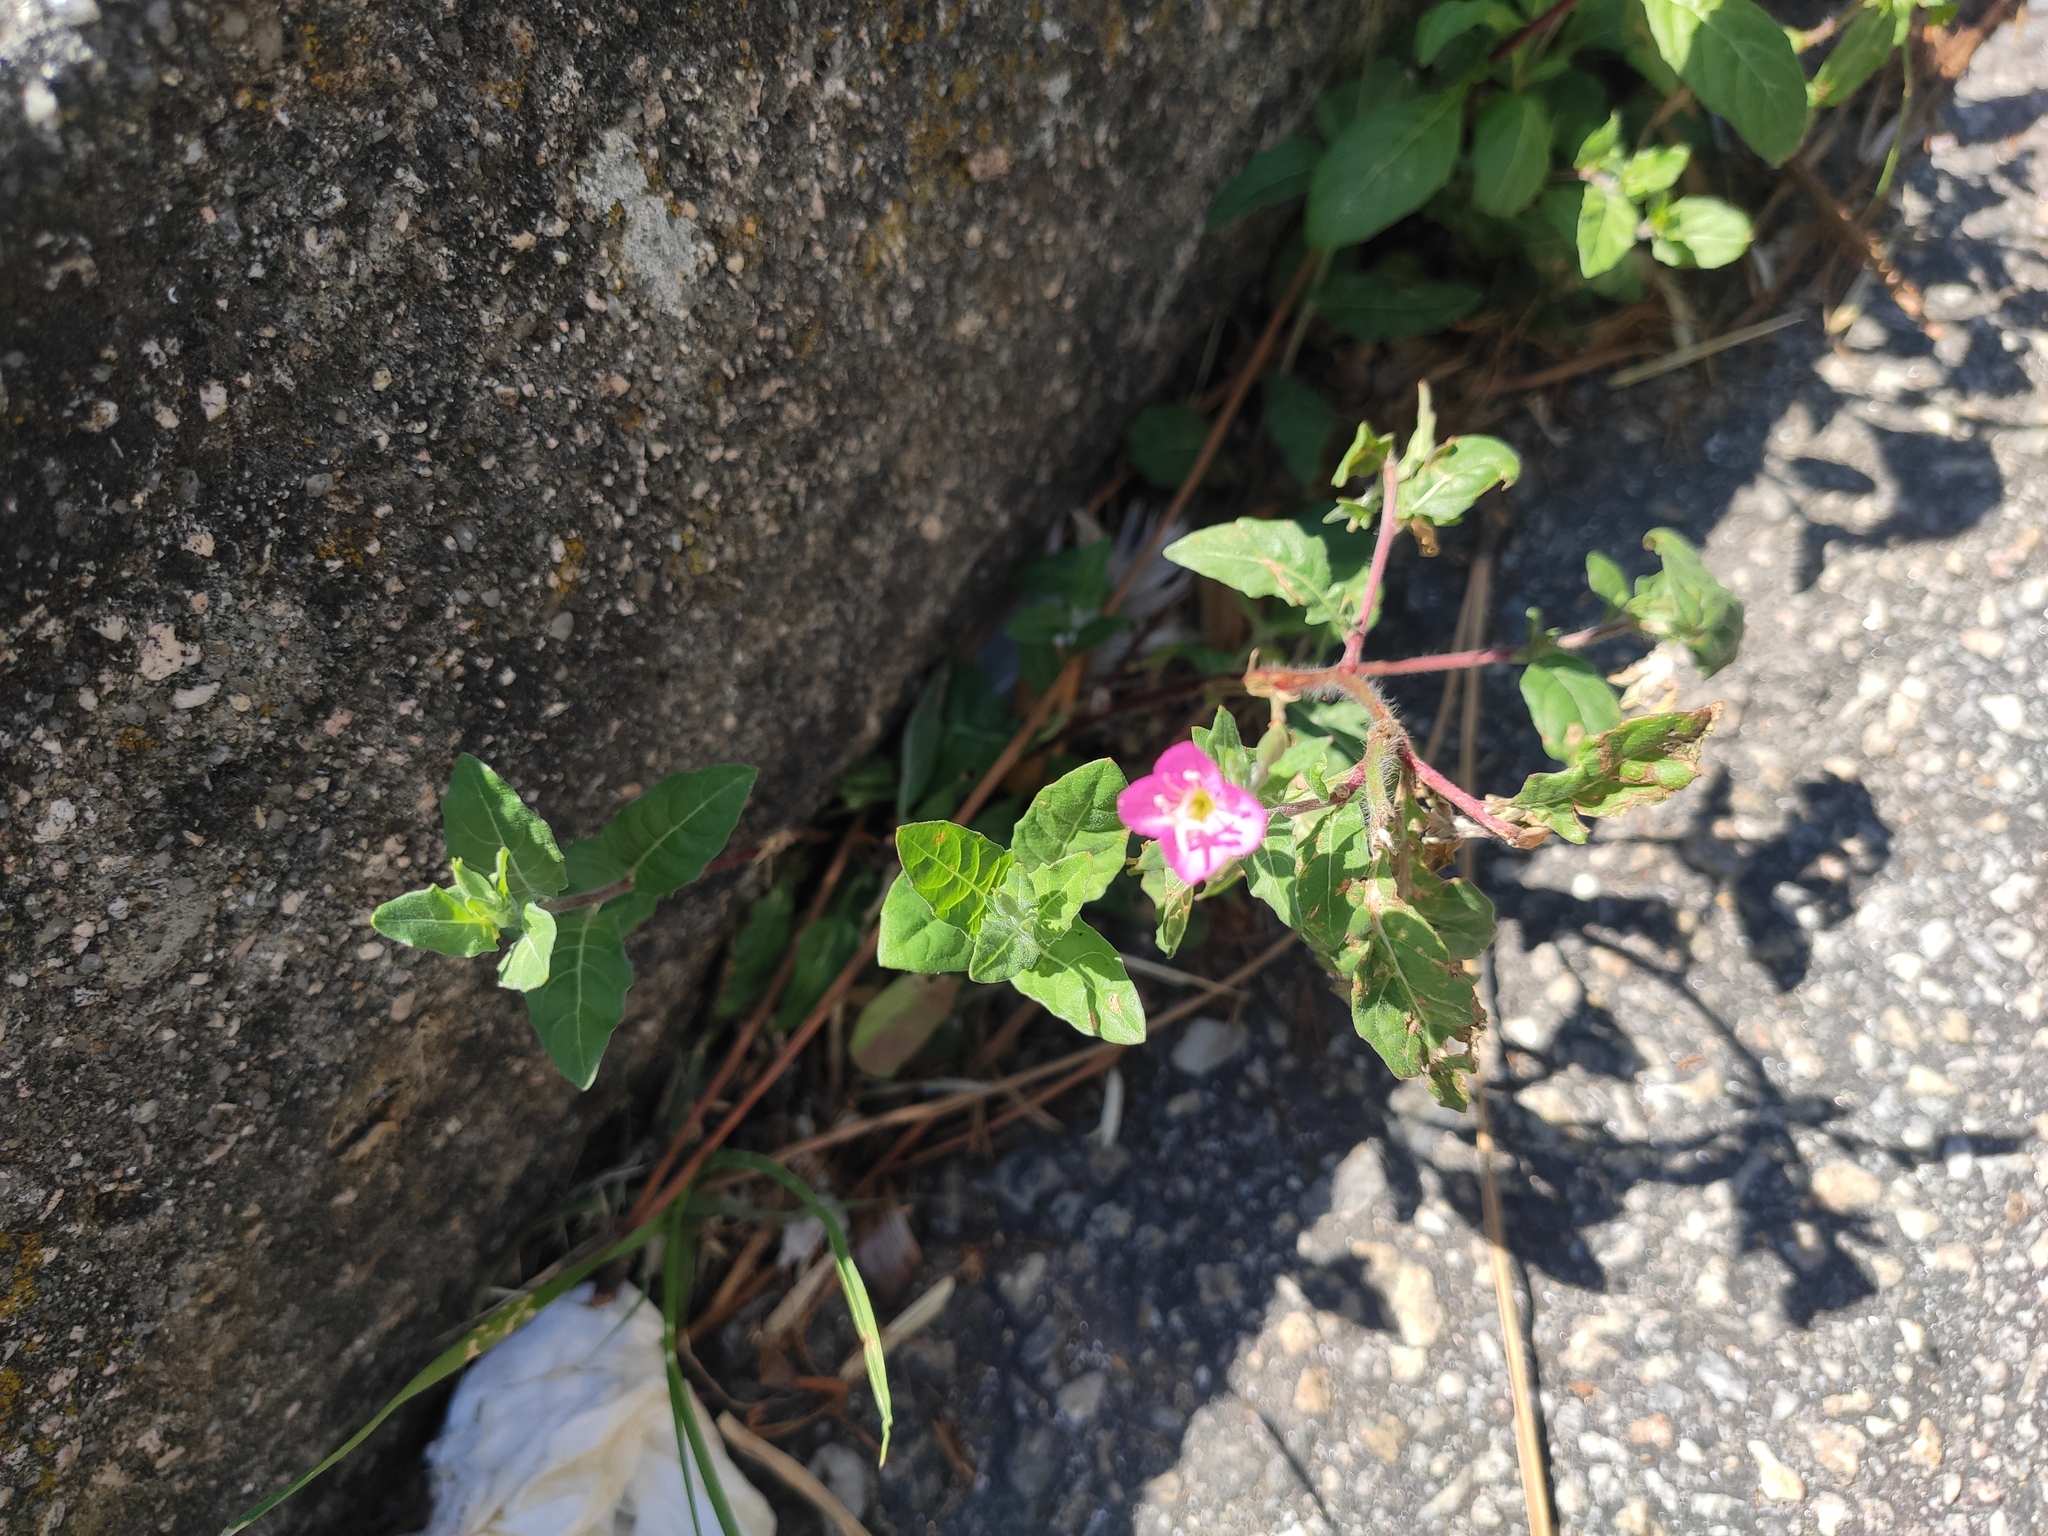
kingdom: Plantae
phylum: Tracheophyta
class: Magnoliopsida
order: Myrtales
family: Onagraceae
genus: Oenothera
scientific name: Oenothera rosea
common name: Rosy evening-primrose
